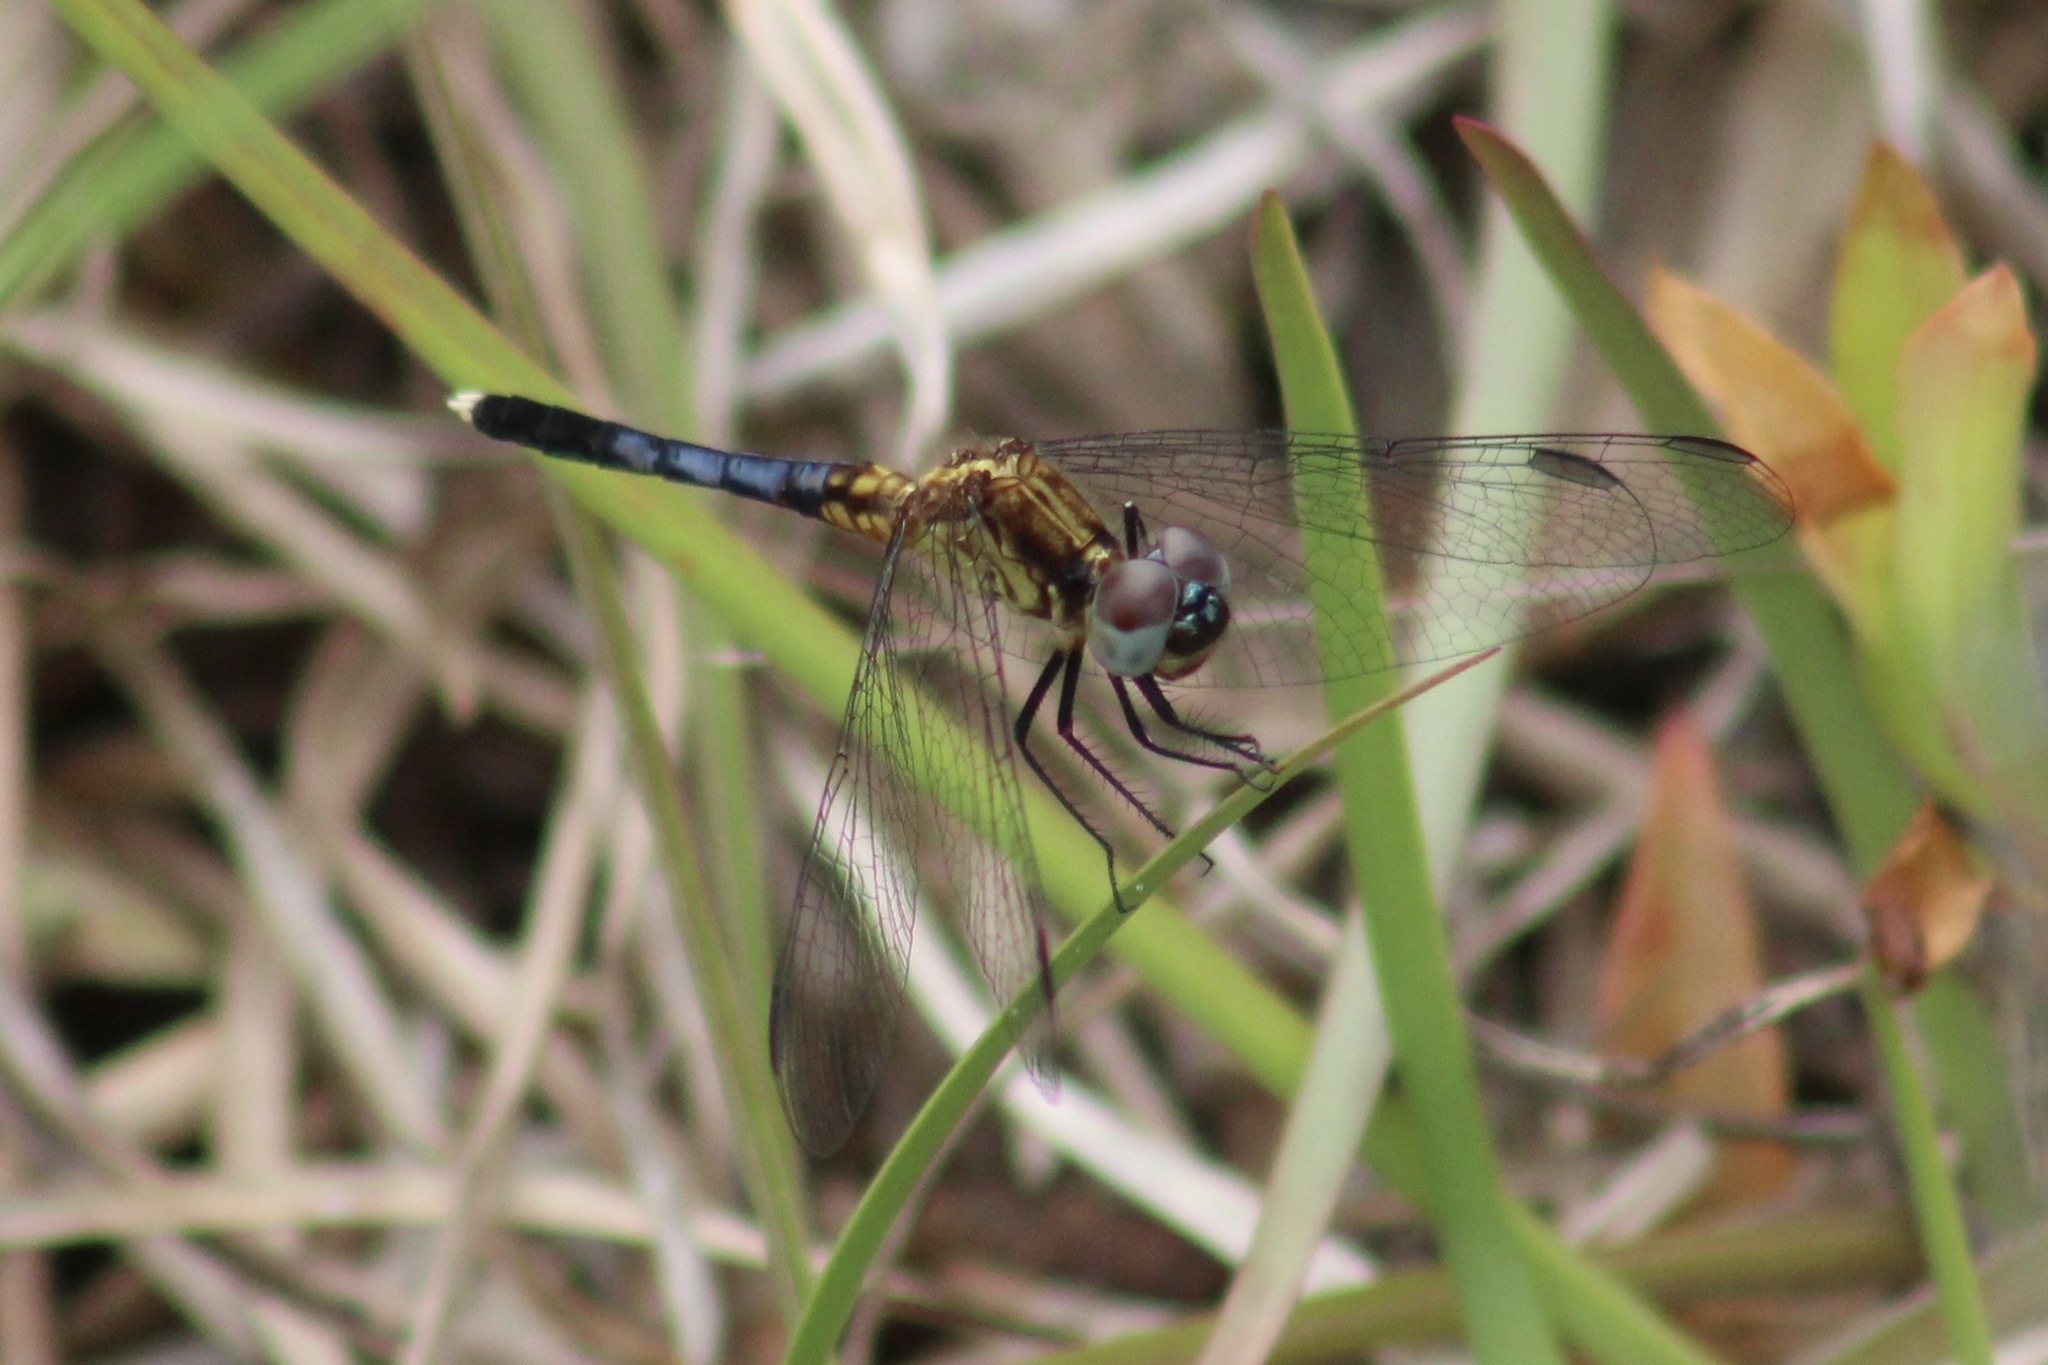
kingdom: Animalia
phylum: Arthropoda
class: Insecta
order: Odonata
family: Libellulidae
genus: Erythrodiplax
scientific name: Erythrodiplax minuscula
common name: Little blue dragonlet
